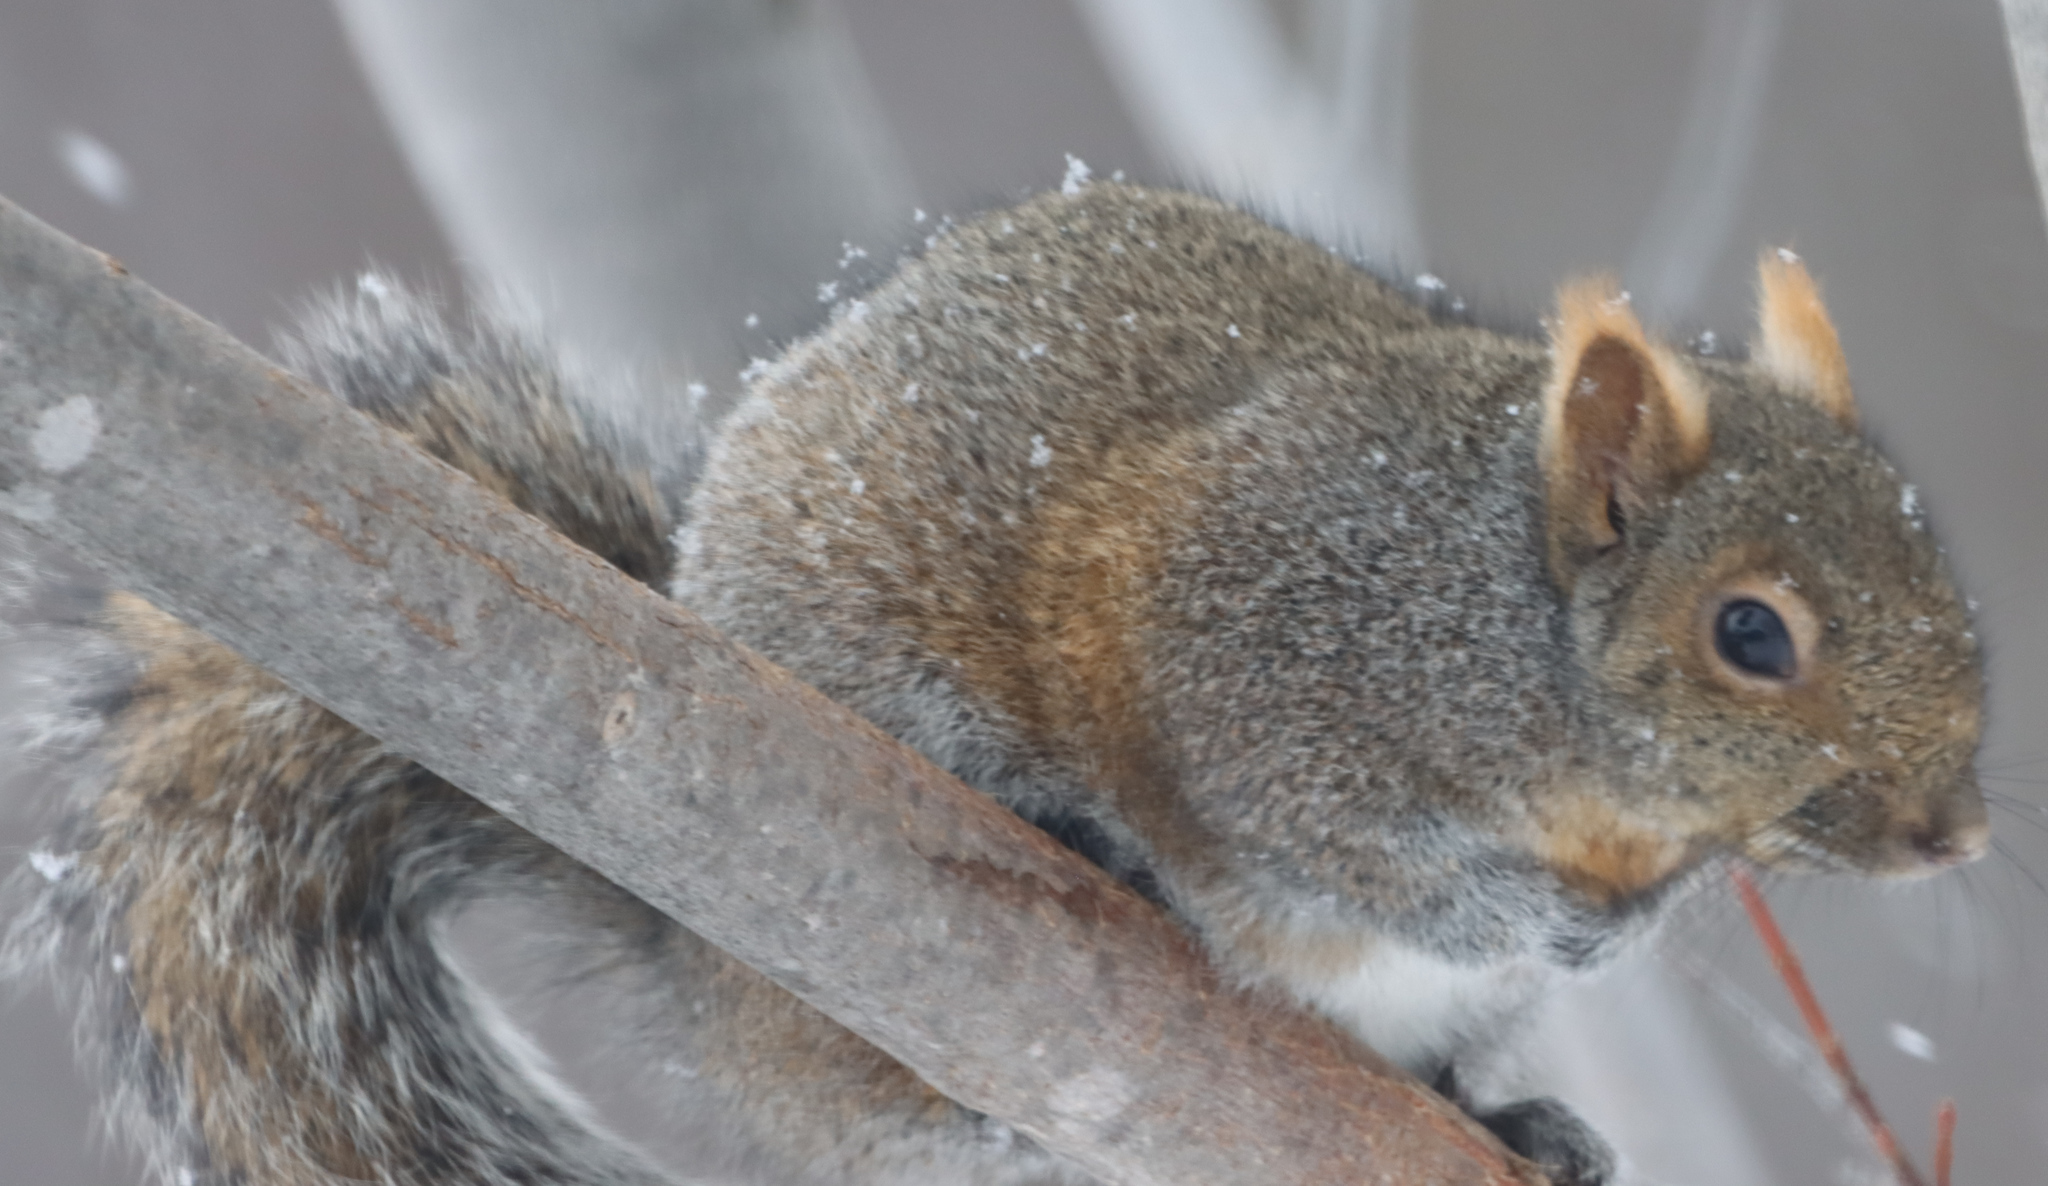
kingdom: Animalia
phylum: Chordata
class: Mammalia
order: Rodentia
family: Sciuridae
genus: Sciurus
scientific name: Sciurus carolinensis
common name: Eastern gray squirrel
